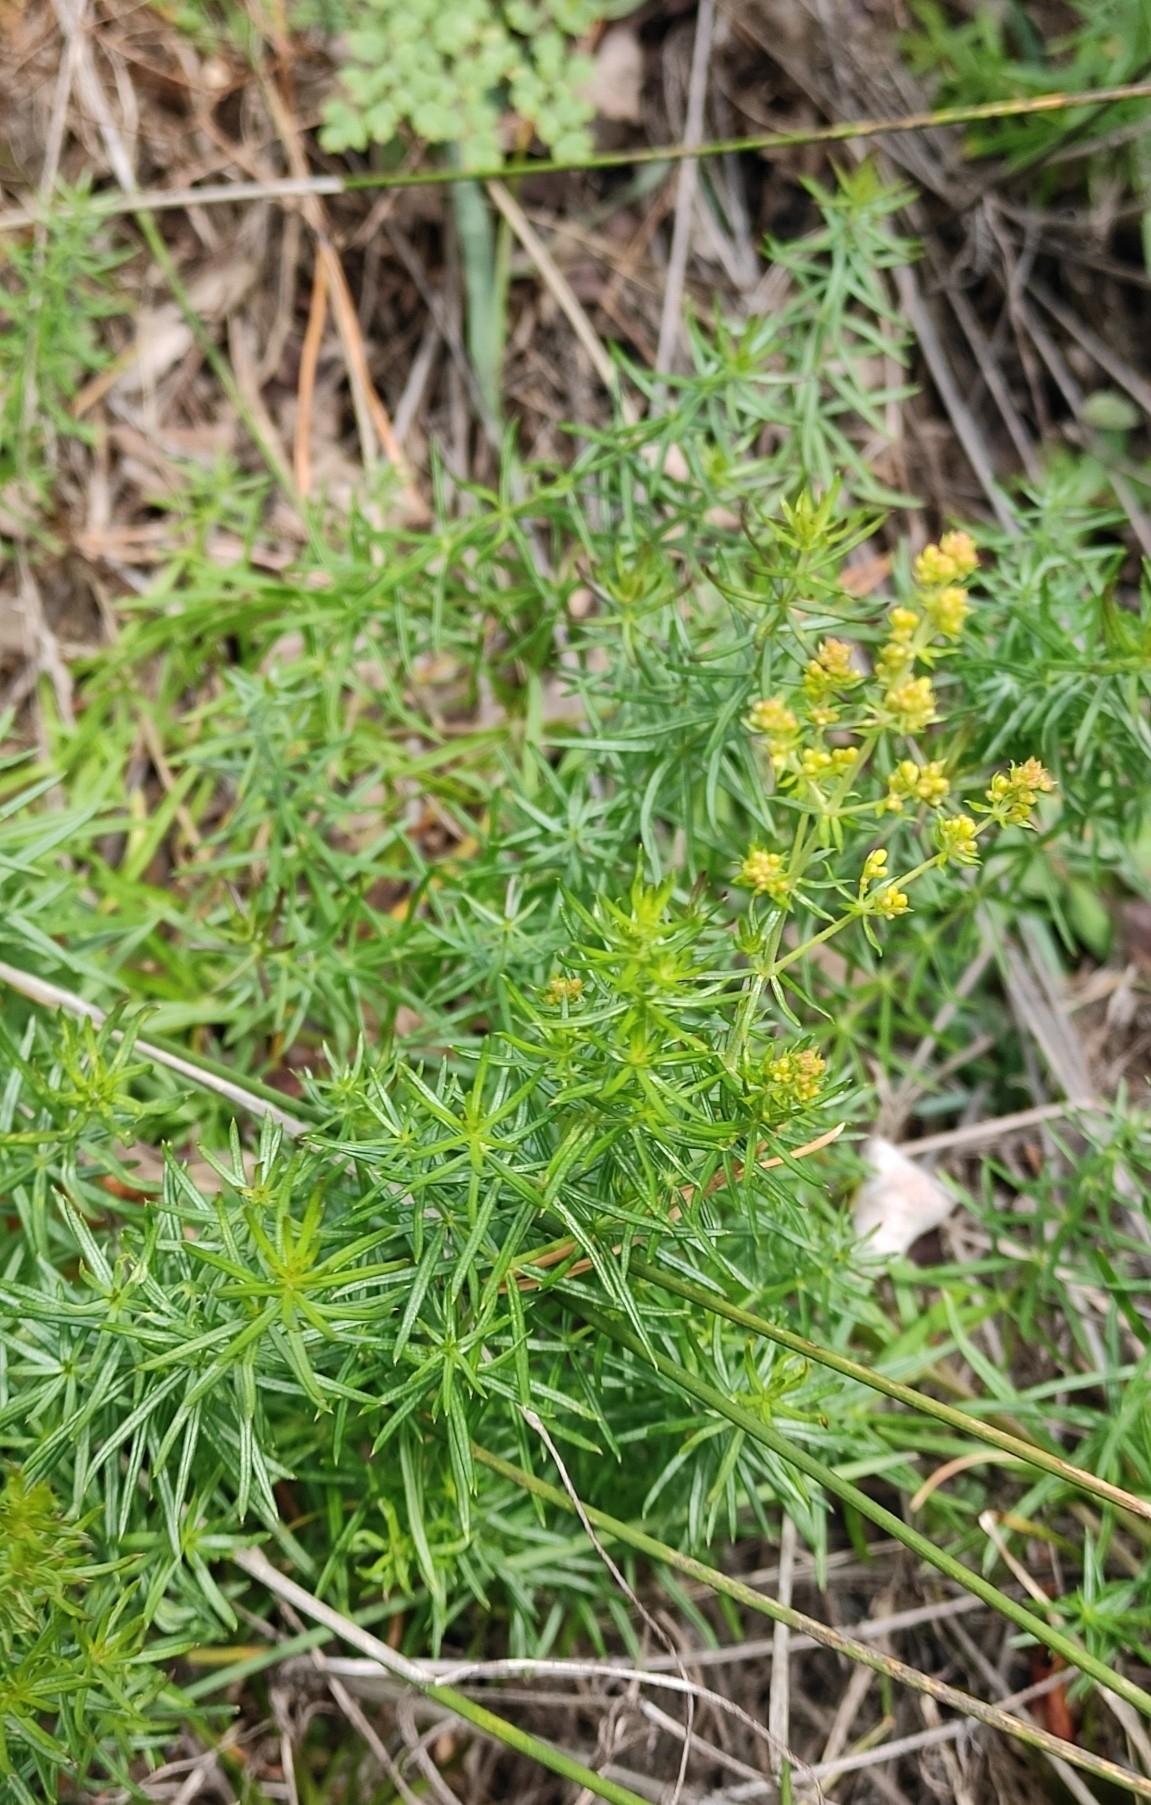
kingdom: Plantae
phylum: Tracheophyta
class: Magnoliopsida
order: Gentianales
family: Rubiaceae
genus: Galium
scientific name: Galium verum
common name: Lady's bedstraw
